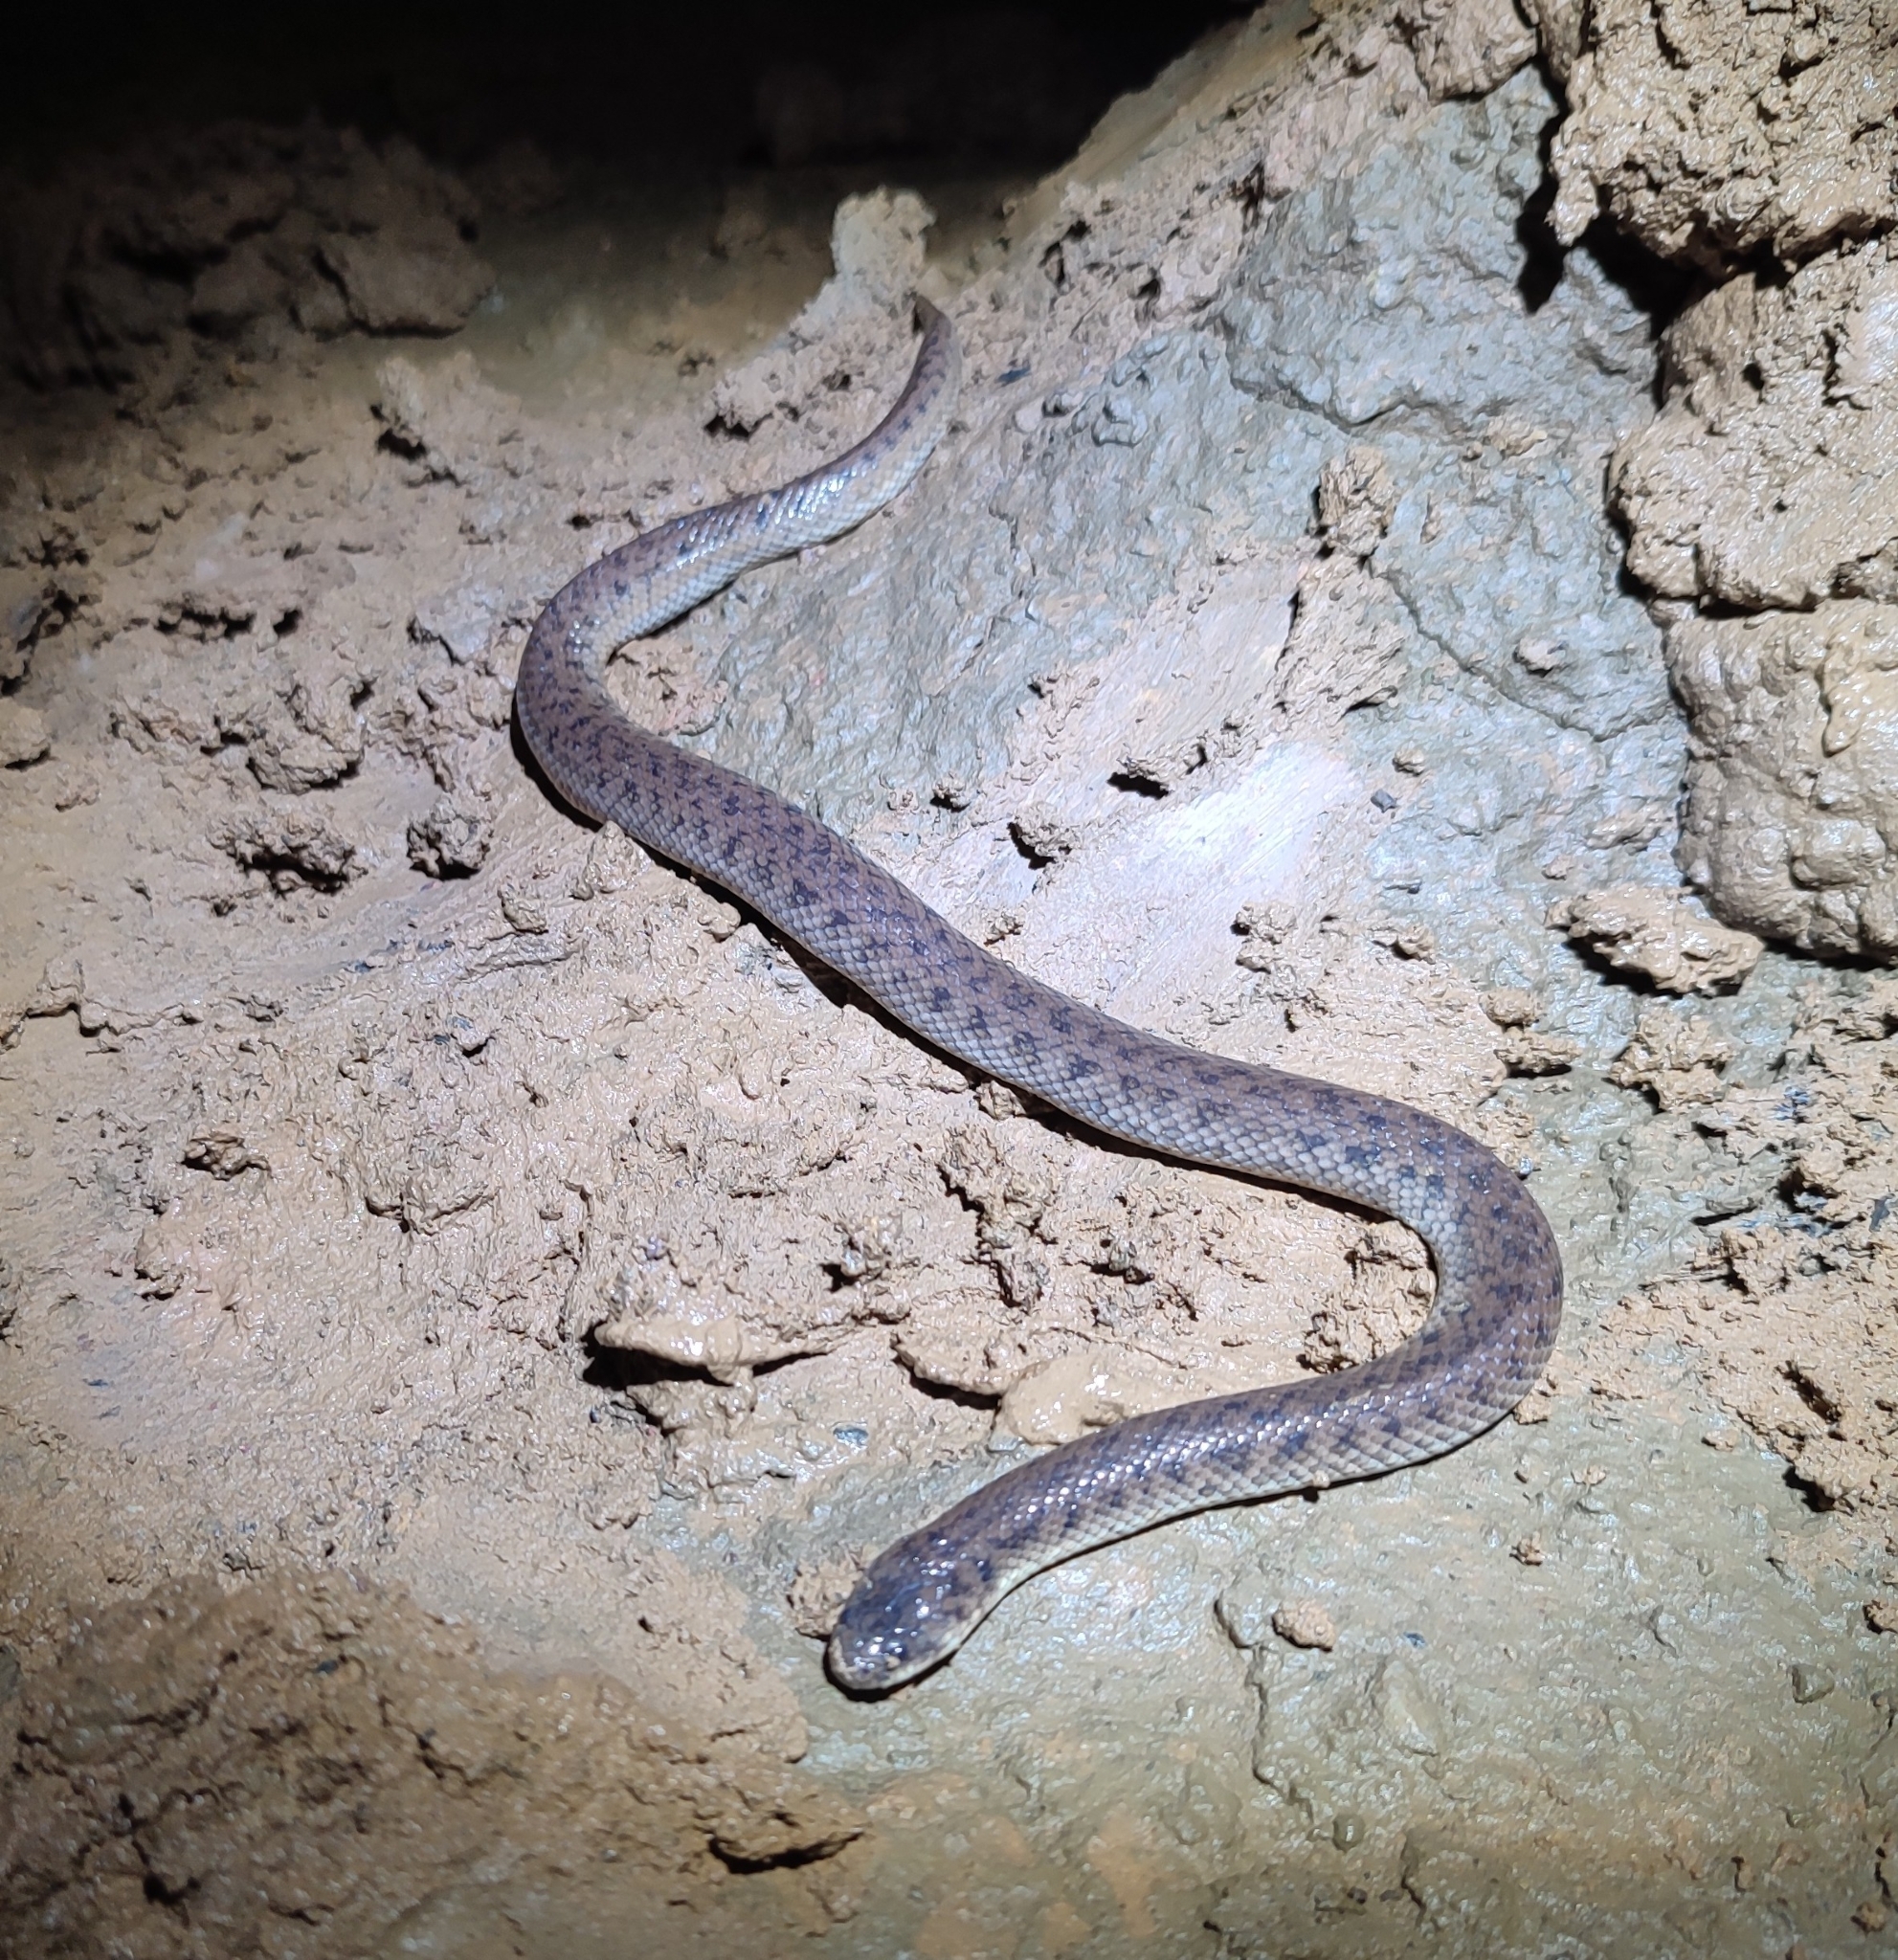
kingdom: Animalia
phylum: Chordata
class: Squamata
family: Homalopsidae
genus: Fordonia
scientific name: Fordonia leucobalia
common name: White-bellied mangrove snake
